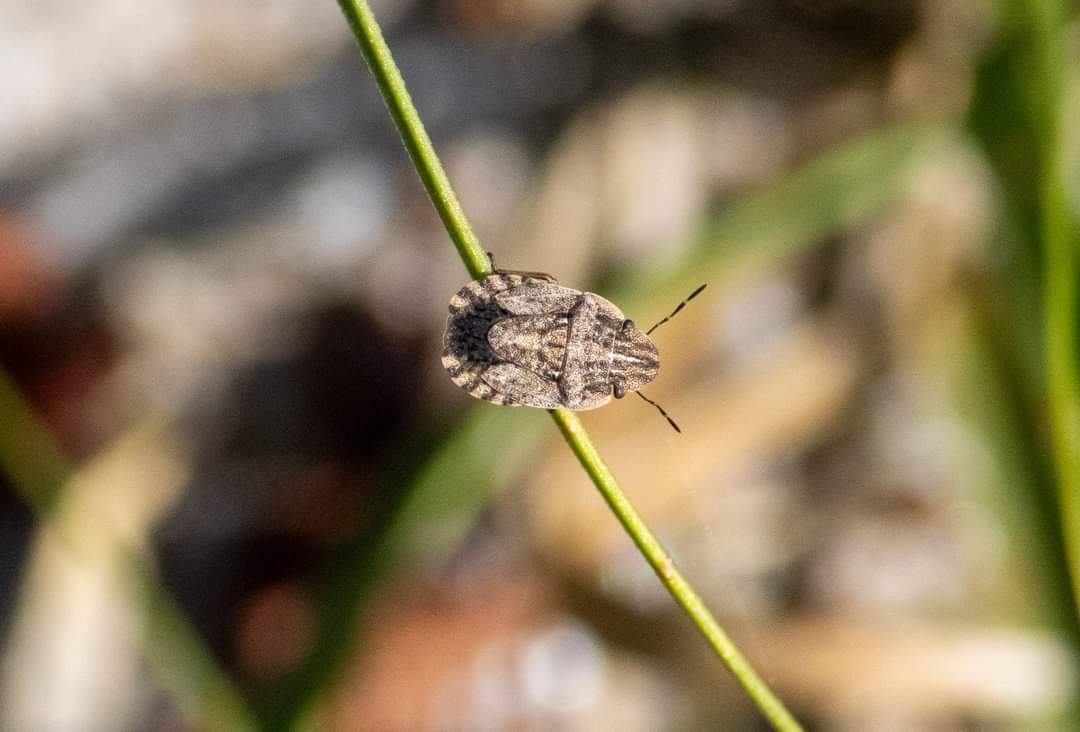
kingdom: Animalia
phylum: Arthropoda
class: Insecta
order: Hemiptera
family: Pentatomidae
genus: Sciocoris
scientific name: Sciocoris cursitans
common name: Sandrunner
